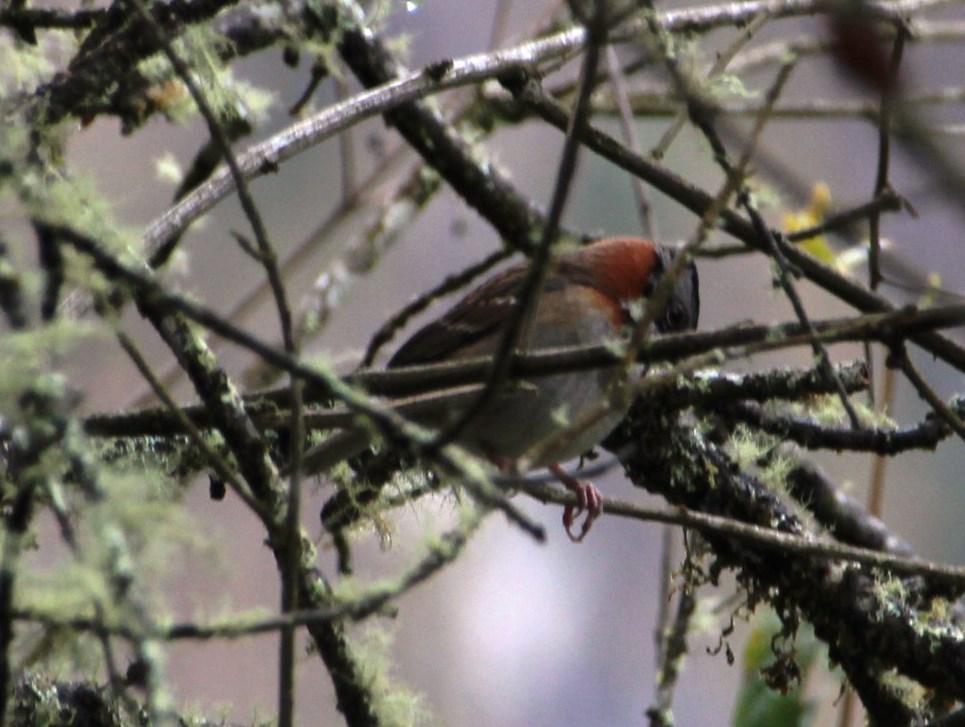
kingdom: Animalia
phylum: Chordata
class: Aves
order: Passeriformes
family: Passerellidae
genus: Zonotrichia
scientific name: Zonotrichia capensis
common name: Rufous-collared sparrow
